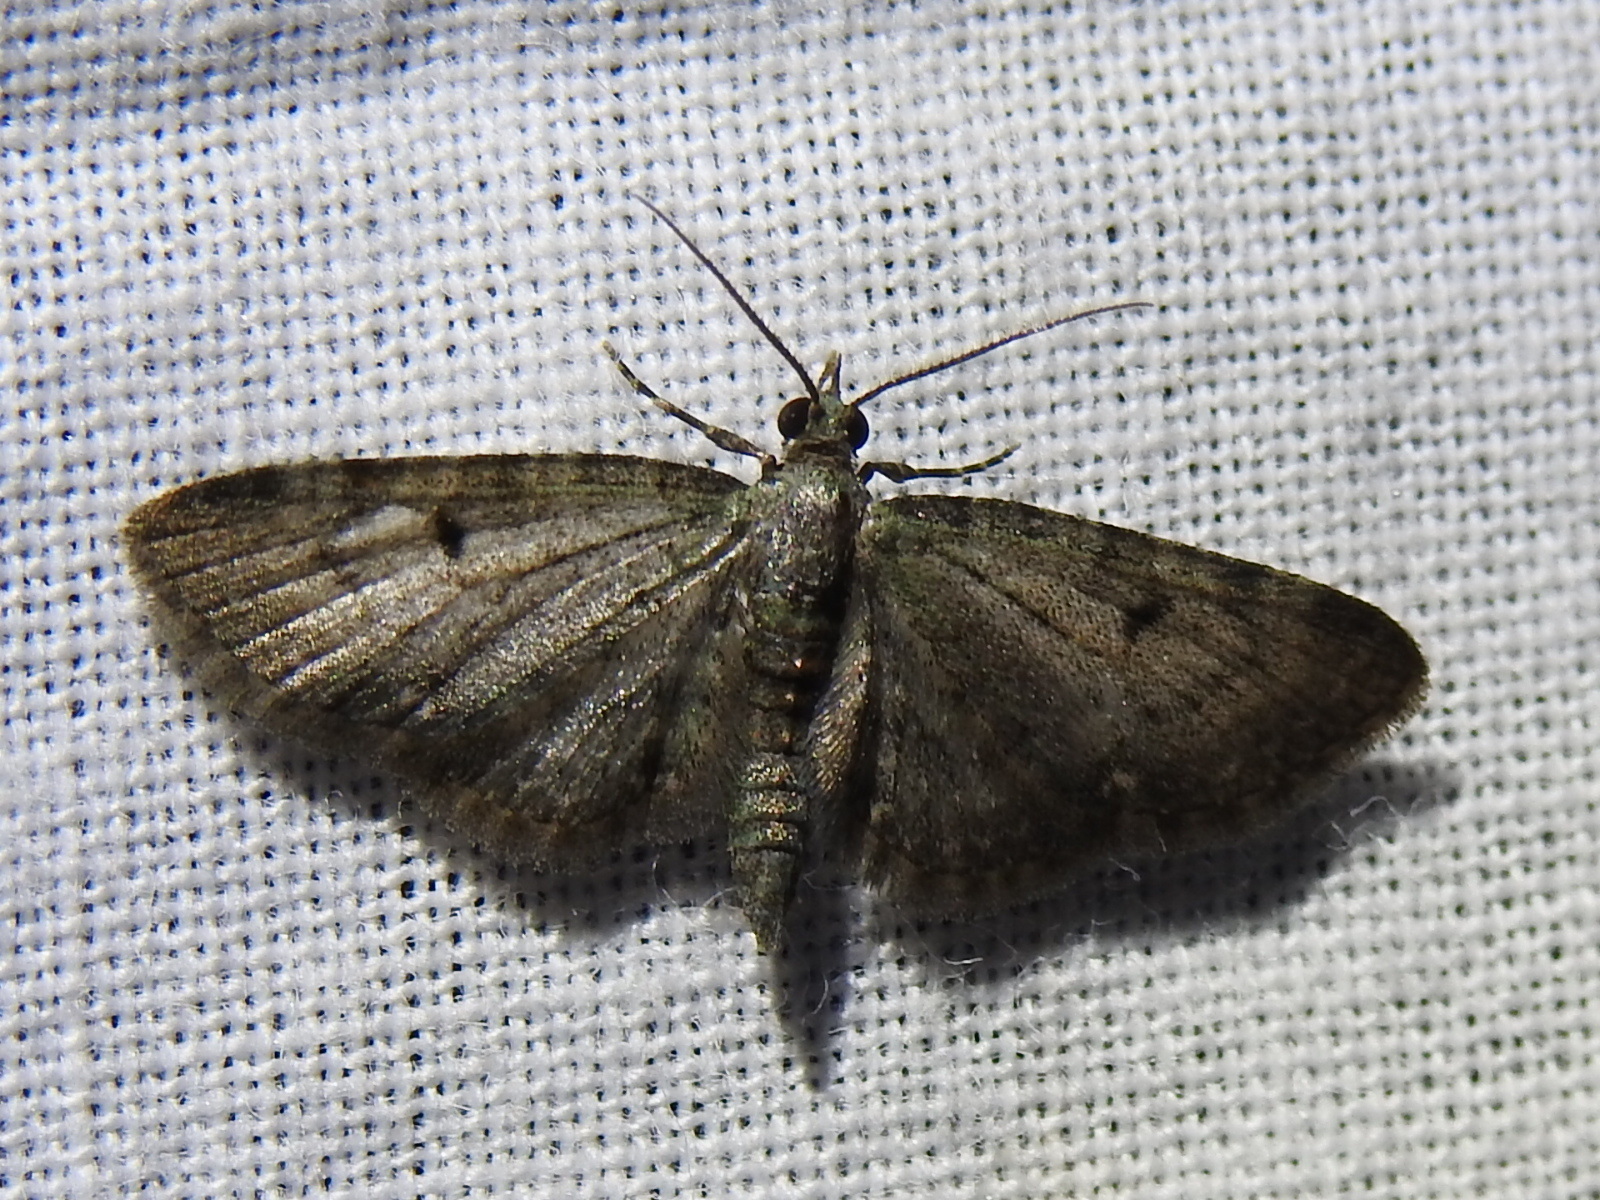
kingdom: Animalia
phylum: Arthropoda
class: Insecta
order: Lepidoptera
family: Geometridae
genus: Eupithecia
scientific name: Eupithecia miserulata
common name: Common eupithecia
